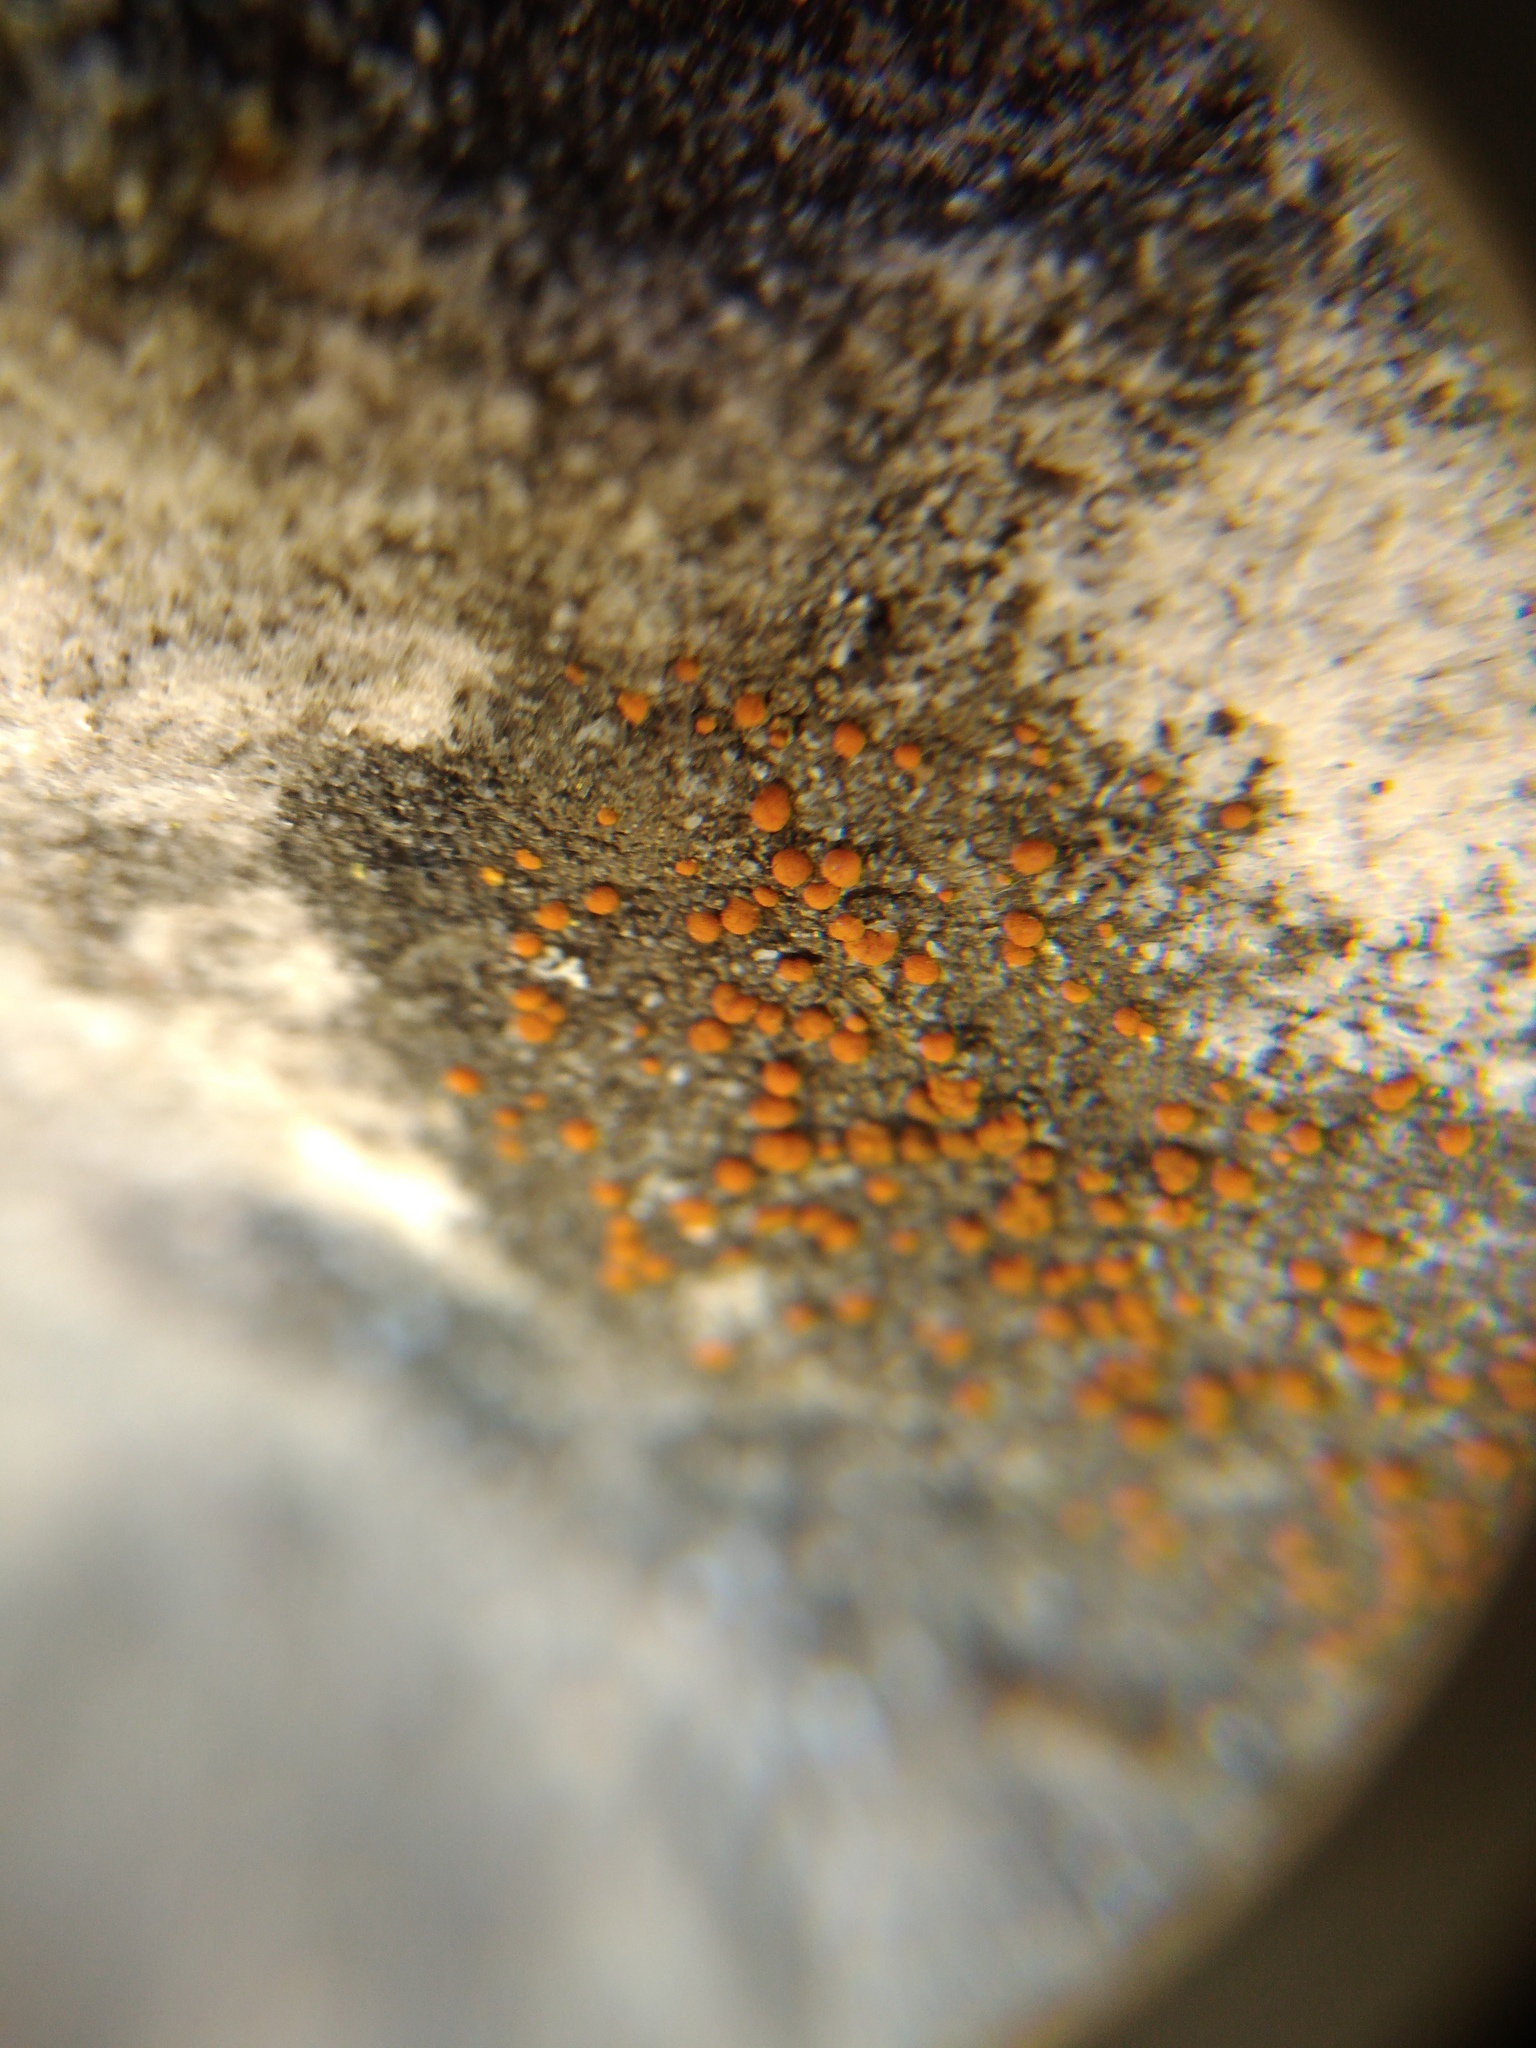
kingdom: Fungi
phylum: Ascomycota
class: Lecanoromycetes
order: Lecanorales
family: Psoraceae
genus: Protoblastenia
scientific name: Protoblastenia rupestris
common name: Chewing gum lichen
